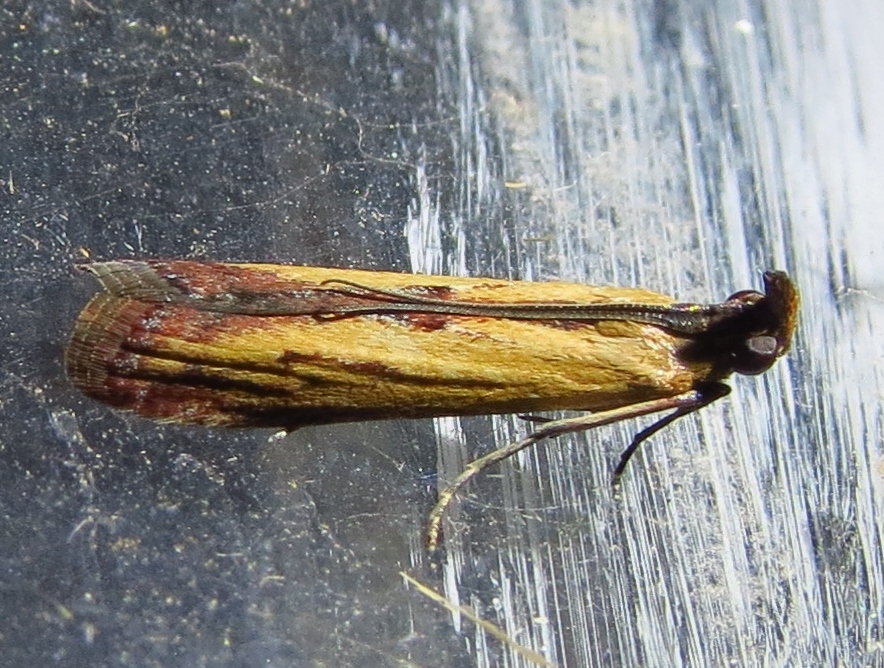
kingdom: Animalia
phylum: Arthropoda
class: Insecta
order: Lepidoptera
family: Pyralidae
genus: Elasmopalpus
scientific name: Elasmopalpus lignosella
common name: Lesser cornstalk borer
